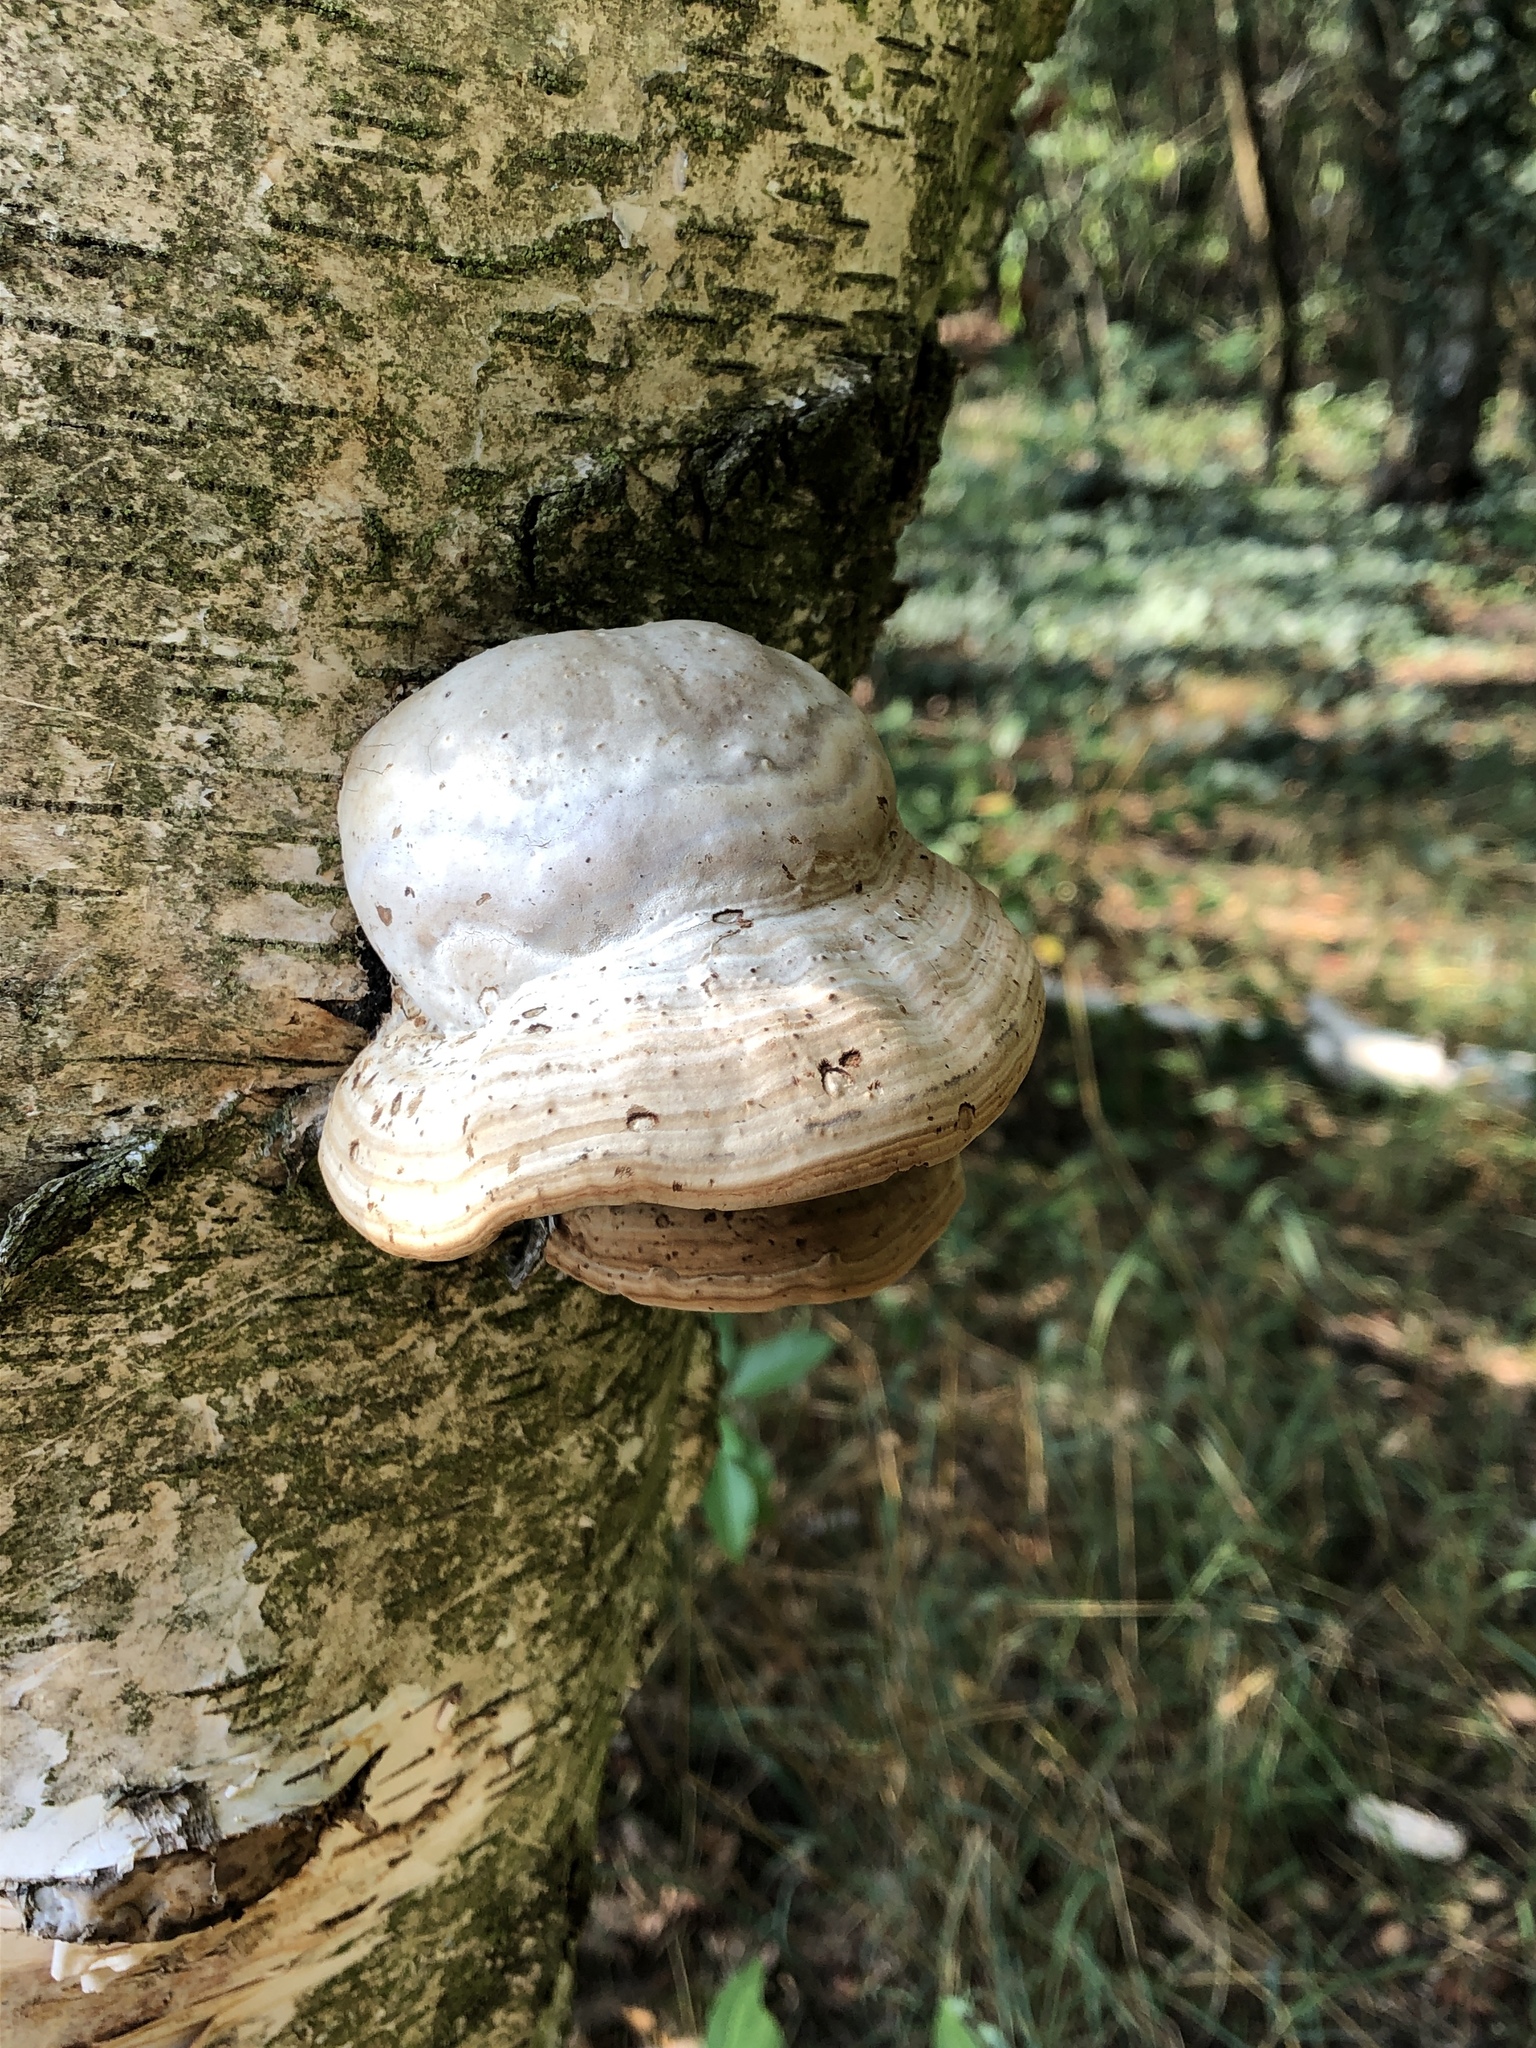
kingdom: Fungi
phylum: Basidiomycota
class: Agaricomycetes
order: Polyporales
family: Polyporaceae
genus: Fomes
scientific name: Fomes fomentarius
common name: Hoof fungus
